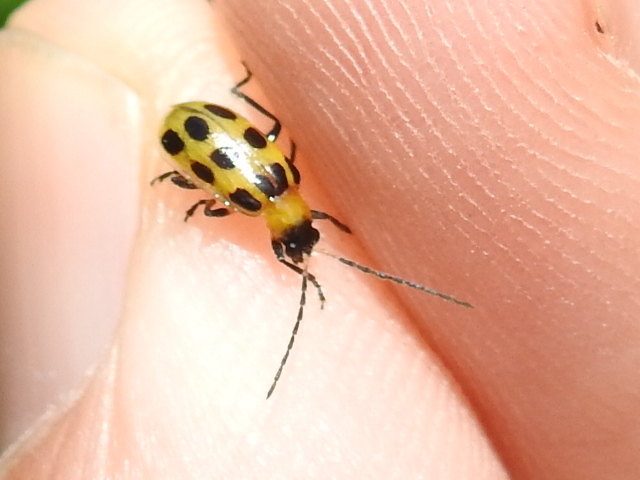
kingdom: Animalia
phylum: Arthropoda
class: Insecta
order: Coleoptera
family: Chrysomelidae
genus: Diabrotica
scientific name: Diabrotica undecimpunctata
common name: Spotted cucumber beetle
